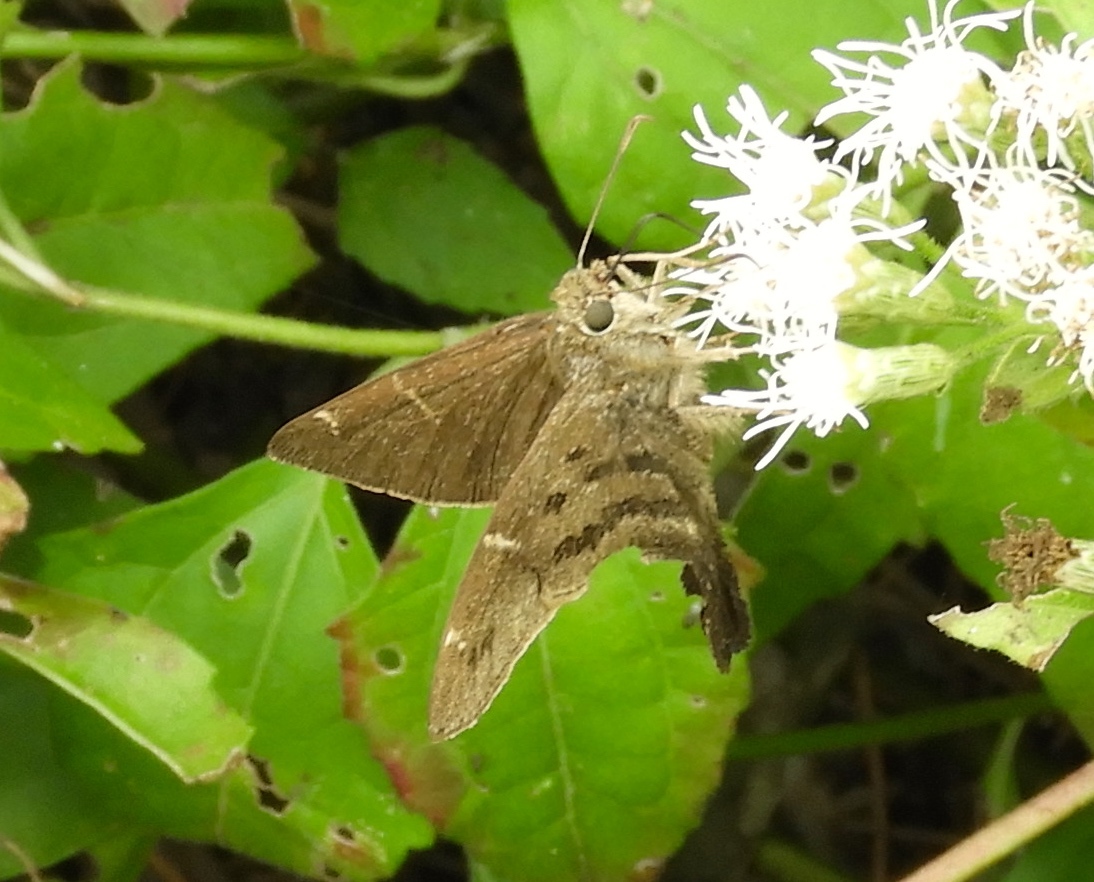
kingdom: Animalia
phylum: Arthropoda
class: Insecta
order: Lepidoptera
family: Hesperiidae
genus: Urbanus
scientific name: Urbanus procne
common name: Brown longtail
